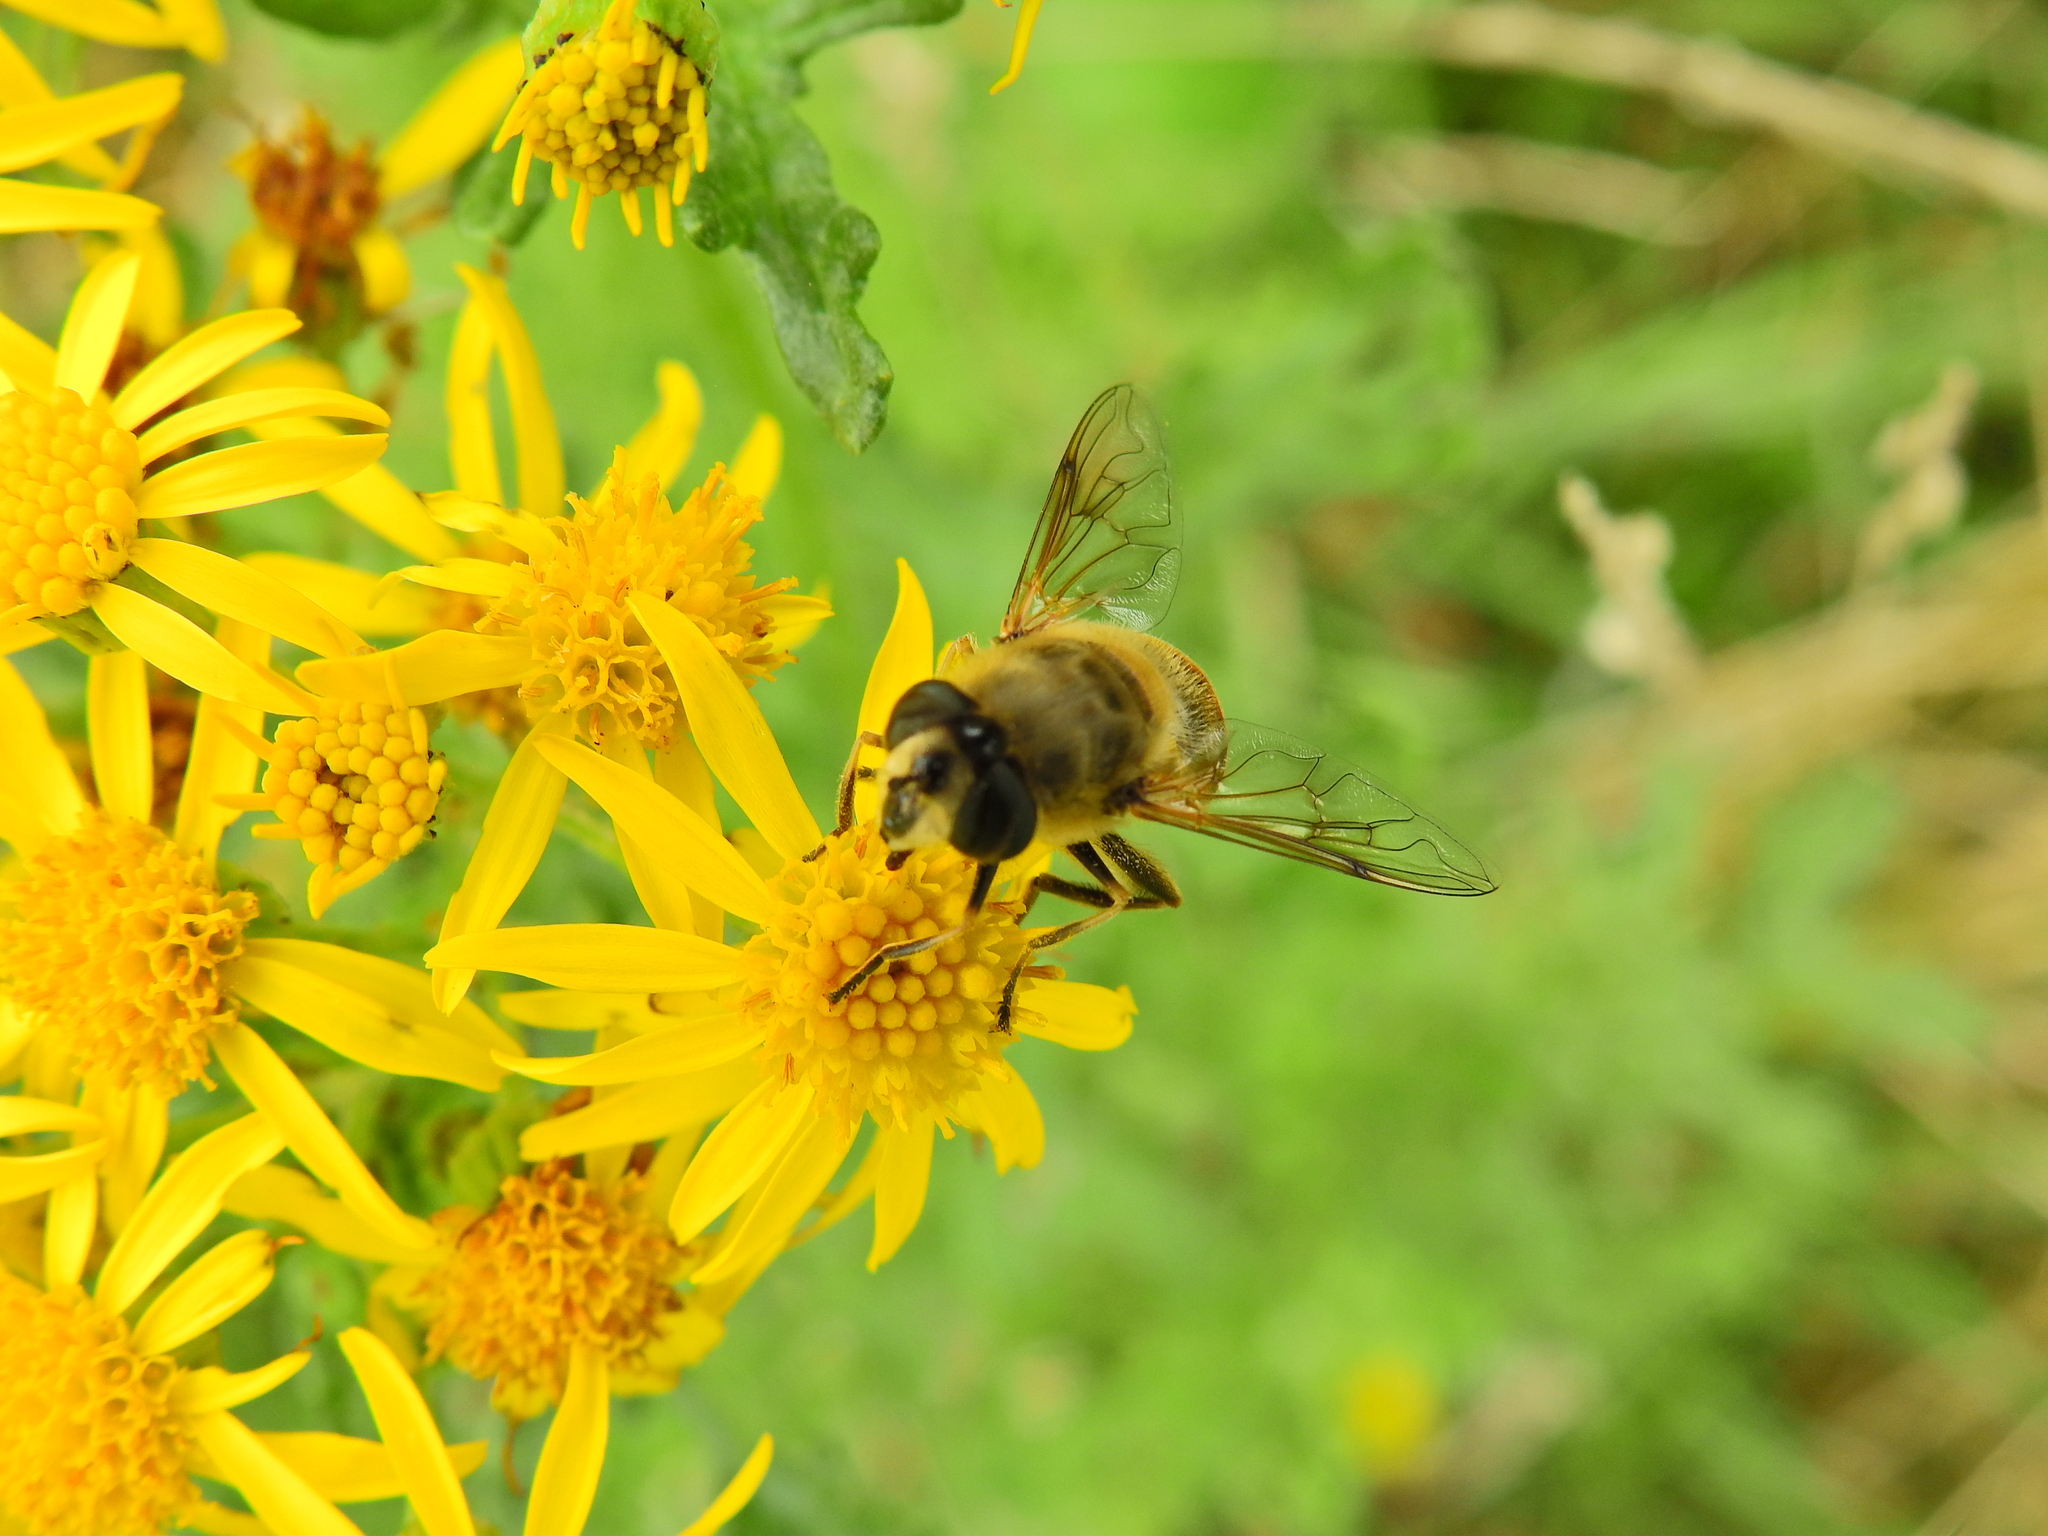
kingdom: Animalia
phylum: Arthropoda
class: Insecta
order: Diptera
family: Syrphidae
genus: Eristalis
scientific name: Eristalis tenax
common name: Drone fly
